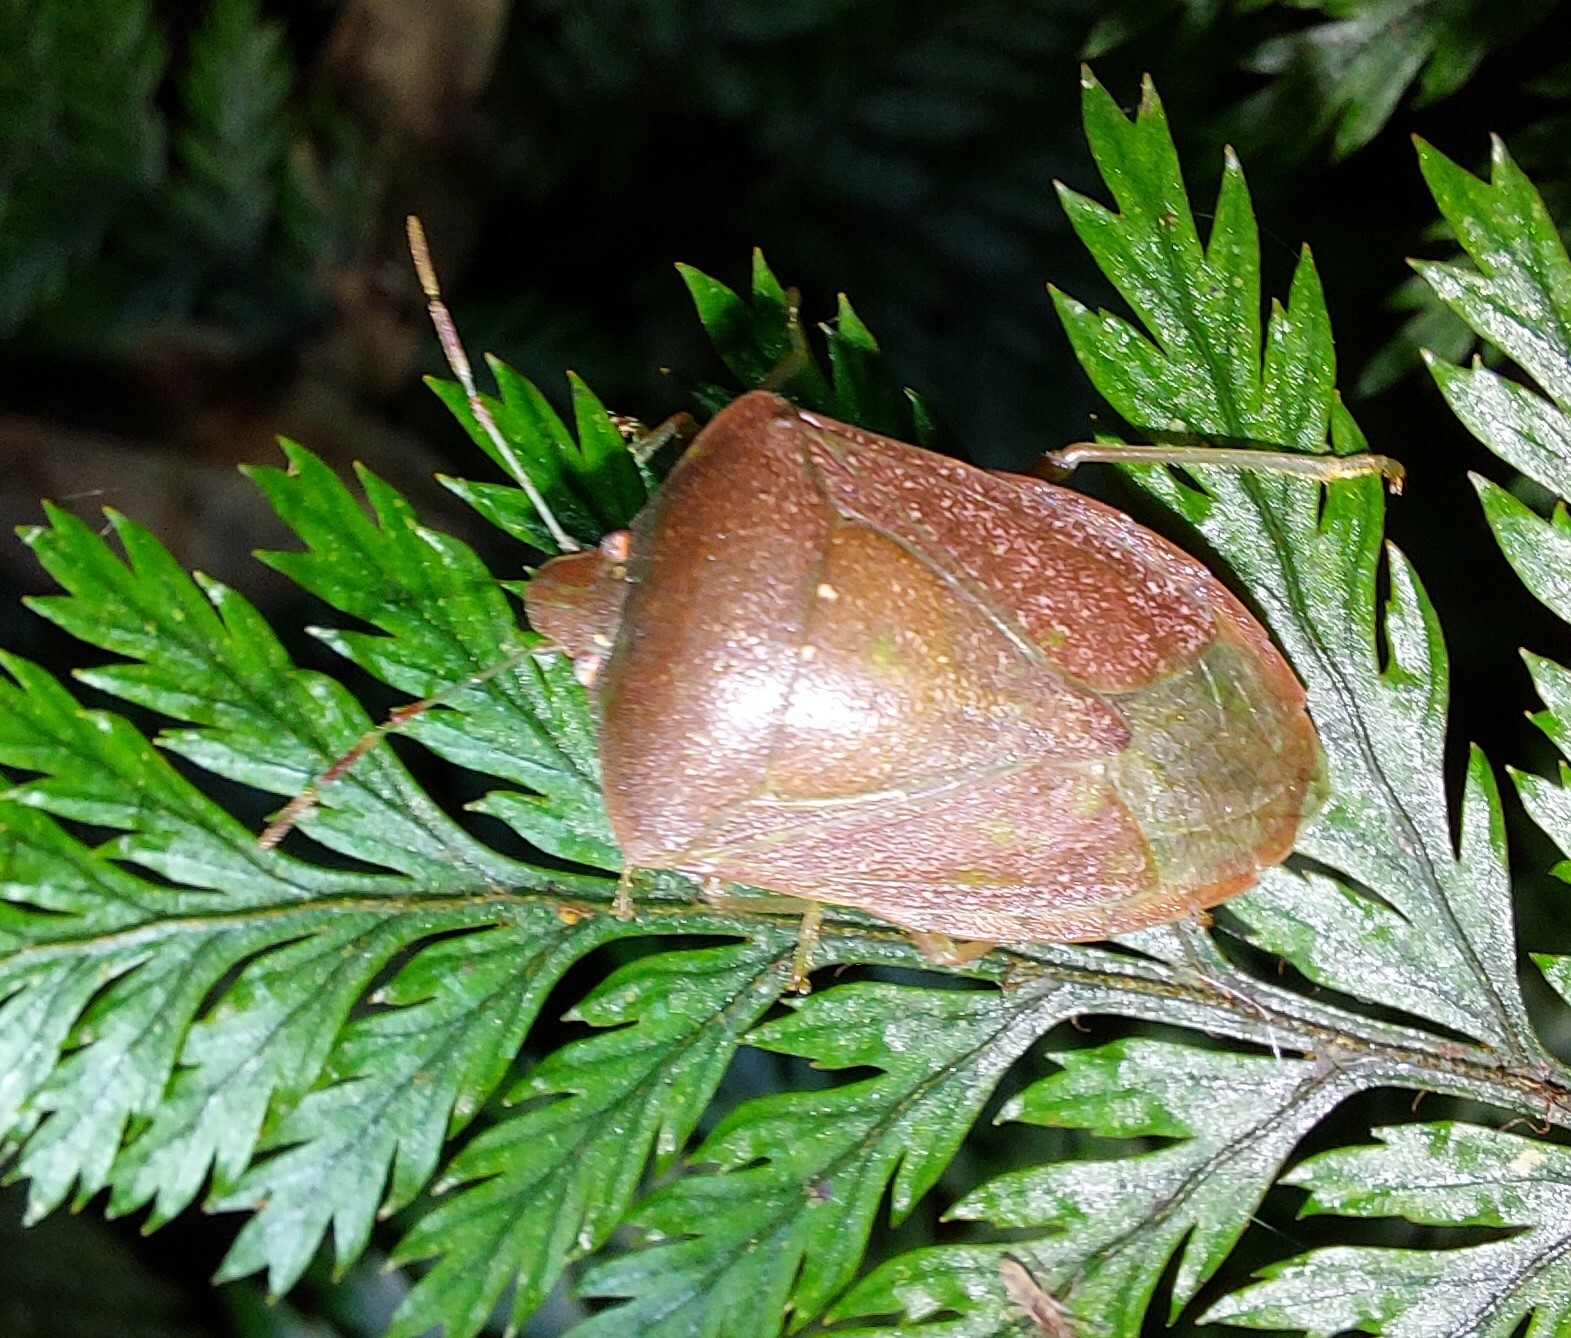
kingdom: Animalia
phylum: Arthropoda
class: Insecta
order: Hemiptera
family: Pentatomidae
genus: Nezara
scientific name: Nezara viridula
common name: Southern green stink bug
